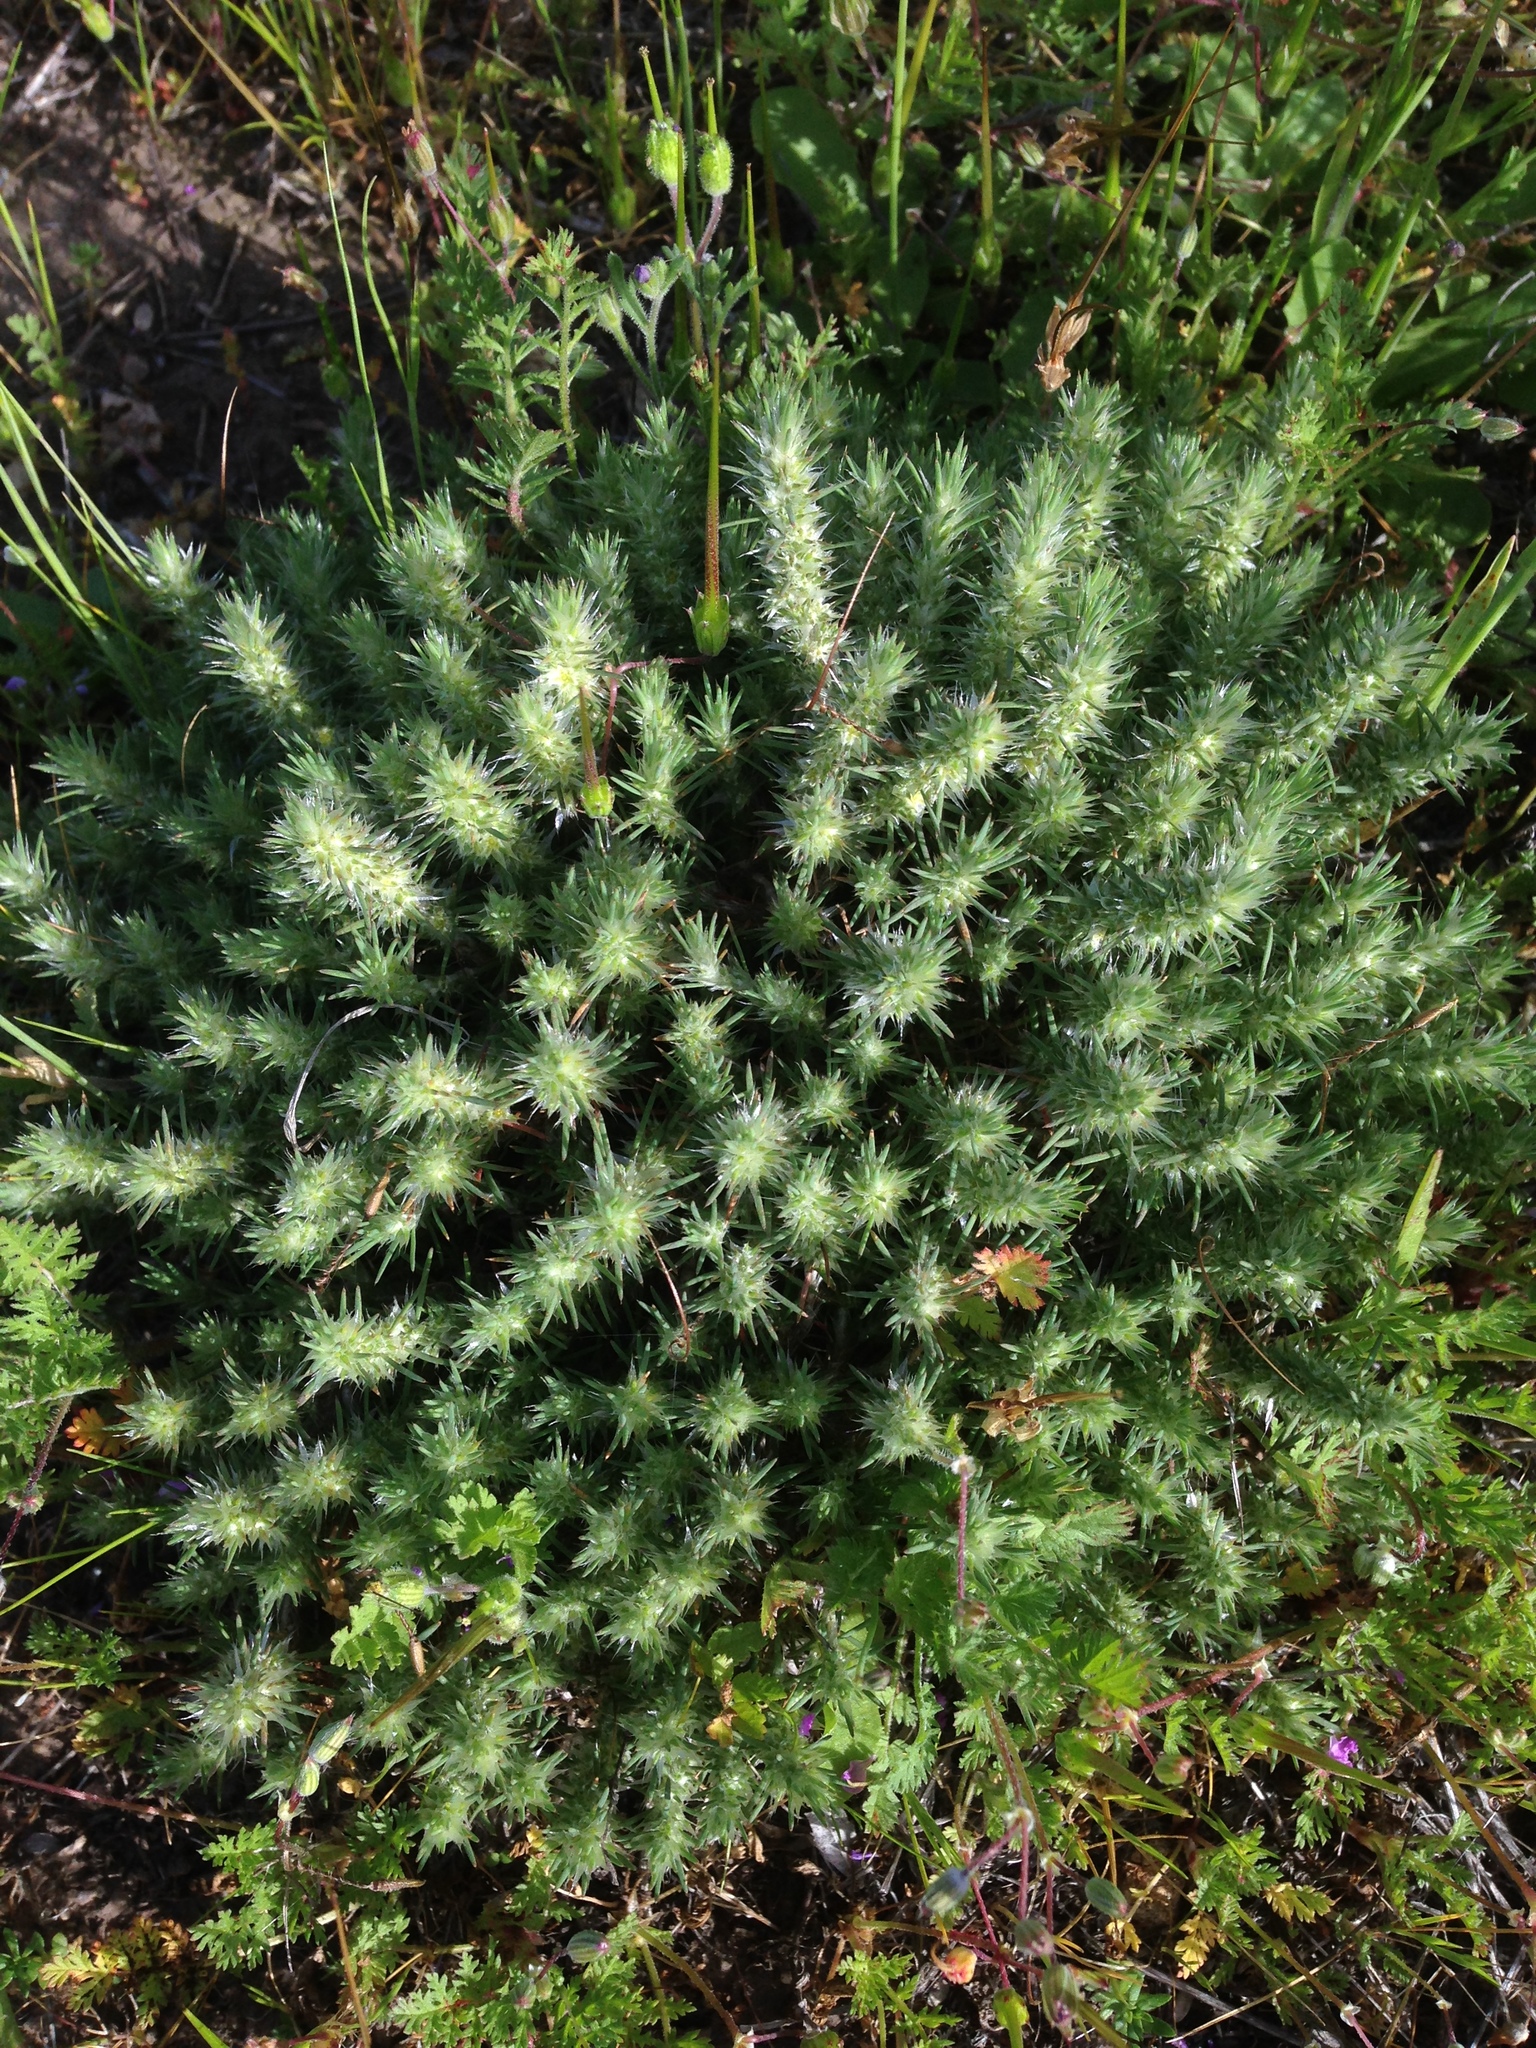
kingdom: Plantae
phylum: Tracheophyta
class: Magnoliopsida
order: Caryophyllales
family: Caryophyllaceae
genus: Cardionema
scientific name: Cardionema ramosissima
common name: Sandcarpet
